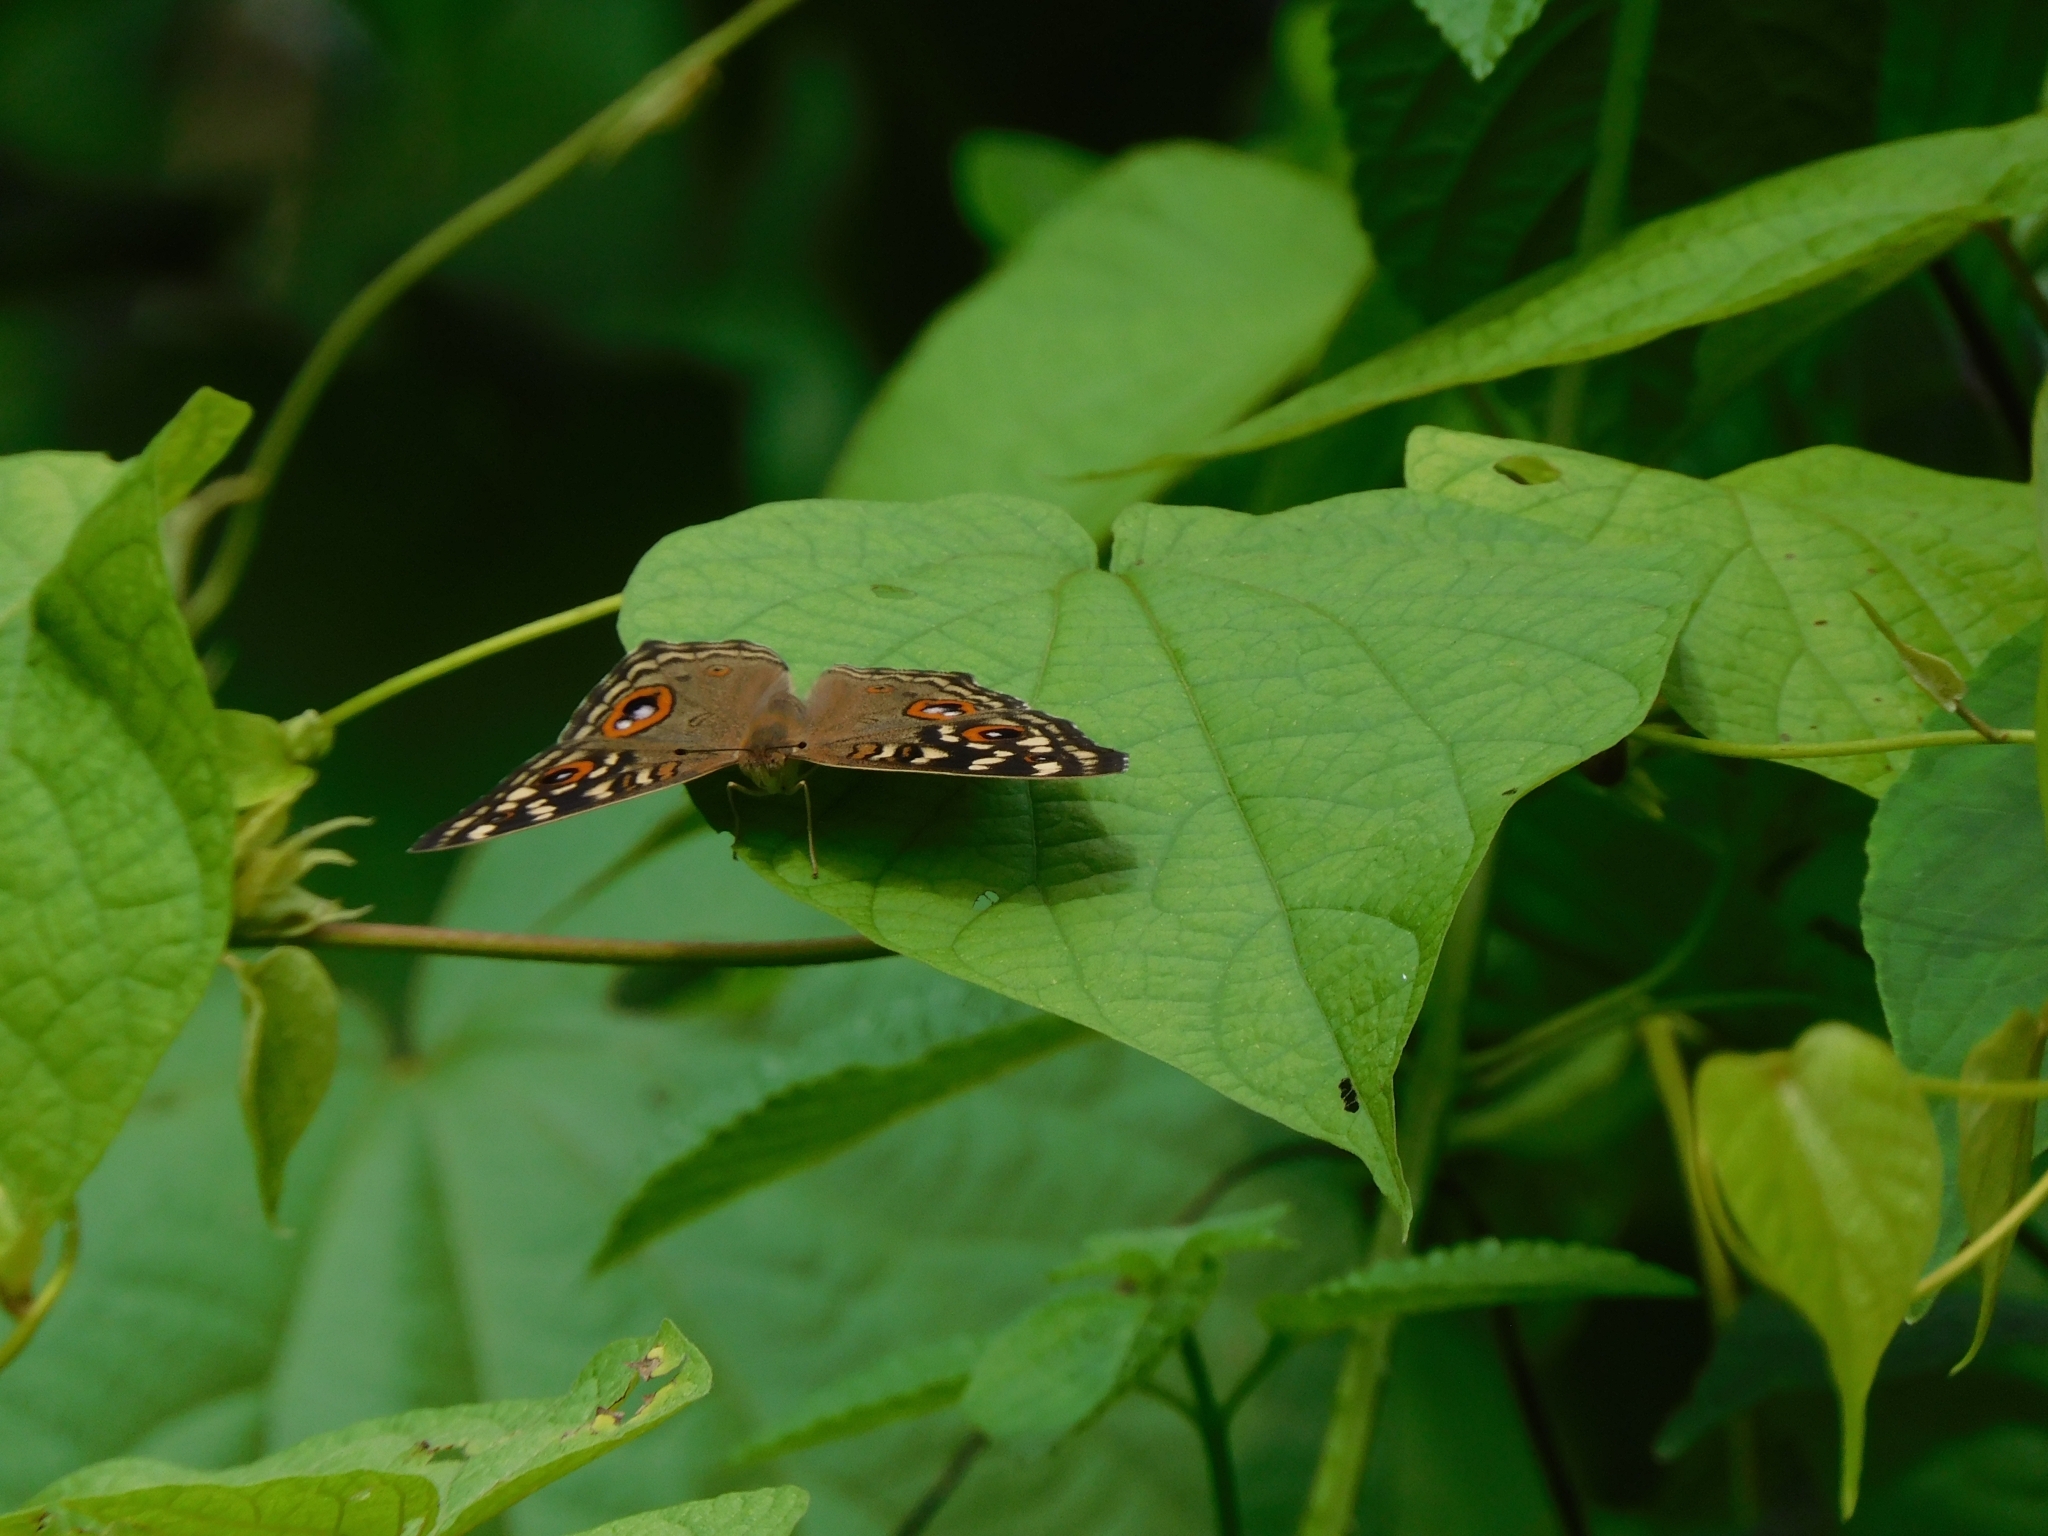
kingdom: Animalia
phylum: Arthropoda
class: Insecta
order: Lepidoptera
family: Nymphalidae
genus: Junonia
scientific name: Junonia lemonias
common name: Lemon pansy
